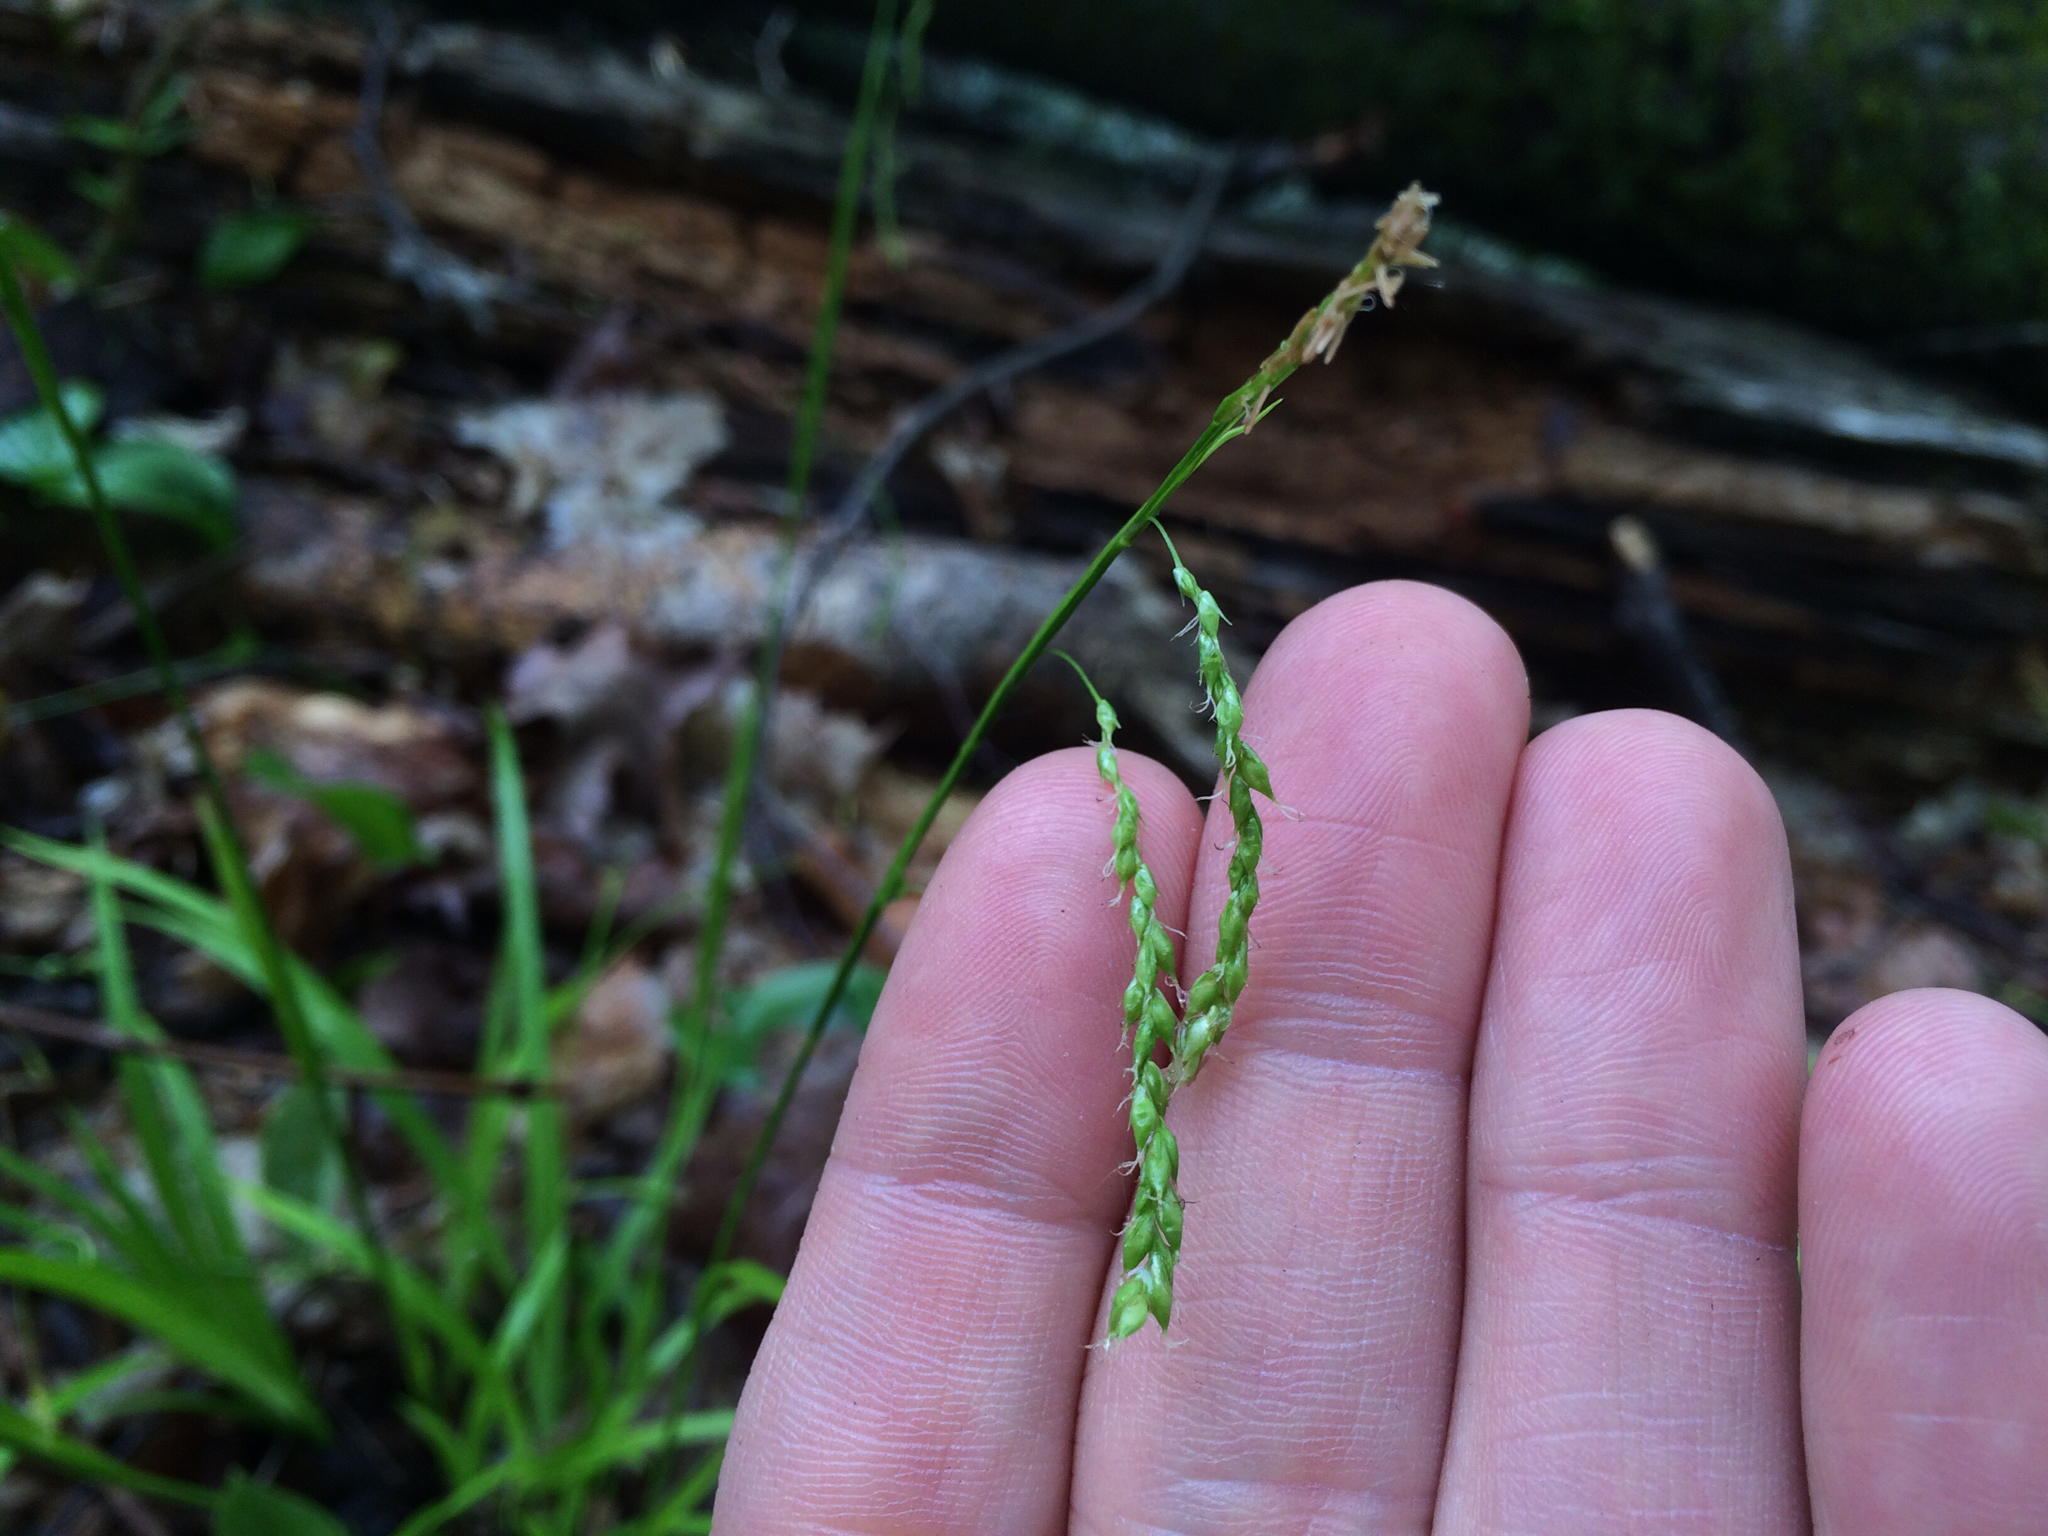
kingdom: Plantae
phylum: Tracheophyta
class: Liliopsida
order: Poales
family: Cyperaceae
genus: Carex
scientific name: Carex arctata
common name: Black sedge
